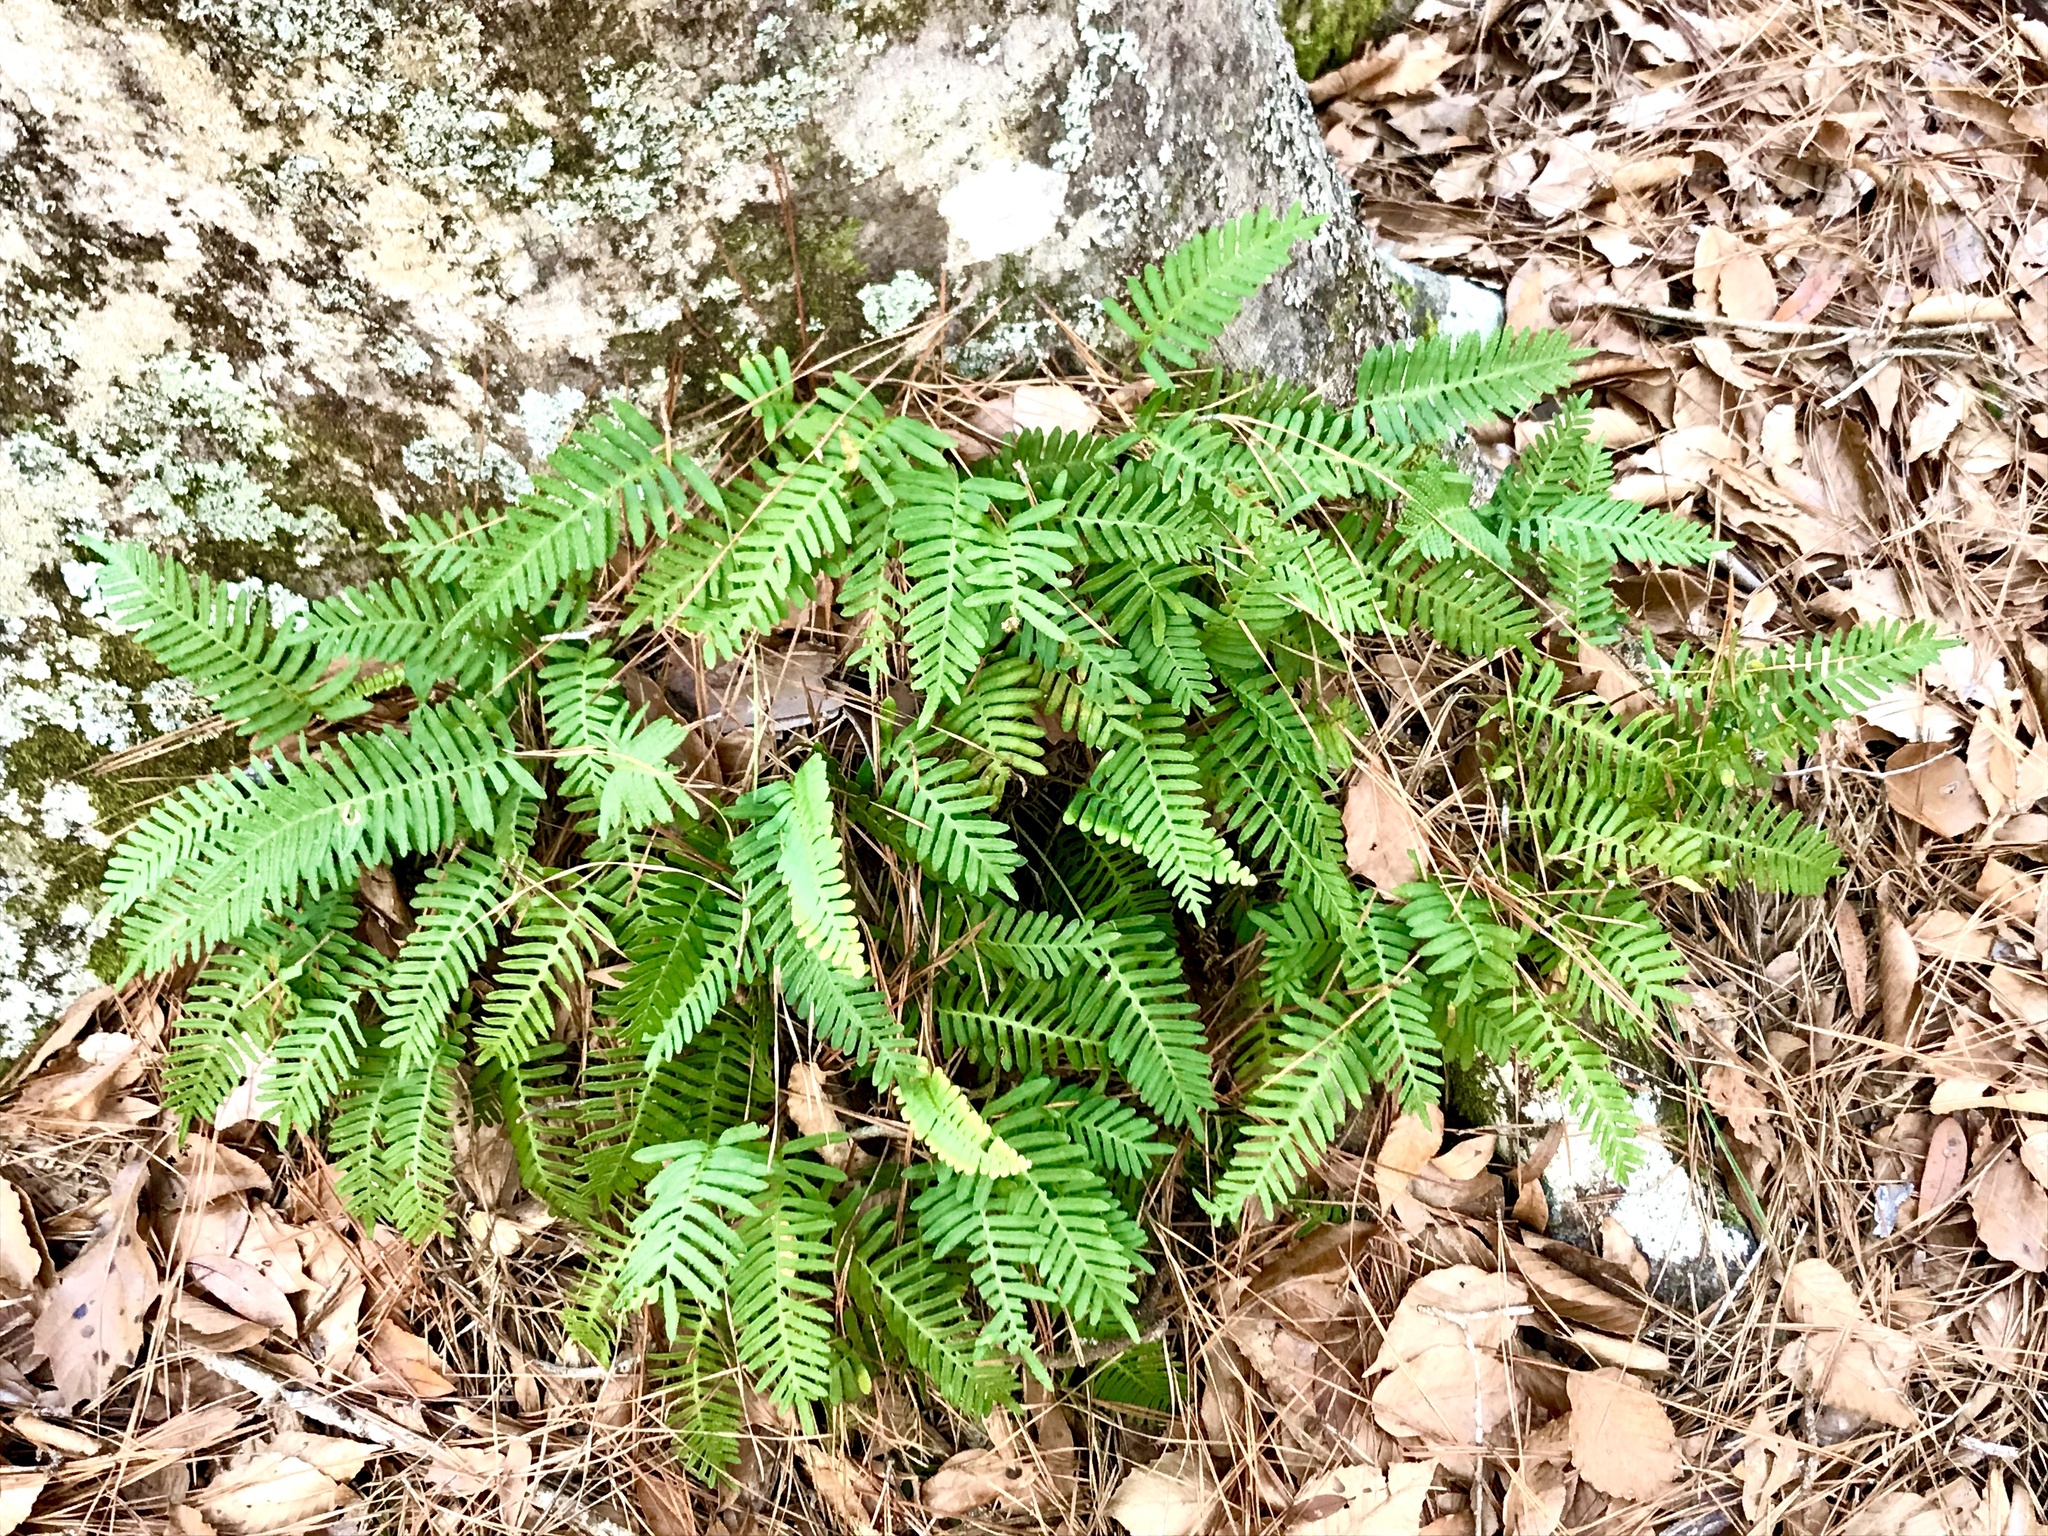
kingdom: Plantae
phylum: Tracheophyta
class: Polypodiopsida
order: Polypodiales
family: Polypodiaceae
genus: Pleopeltis
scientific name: Pleopeltis michauxiana
